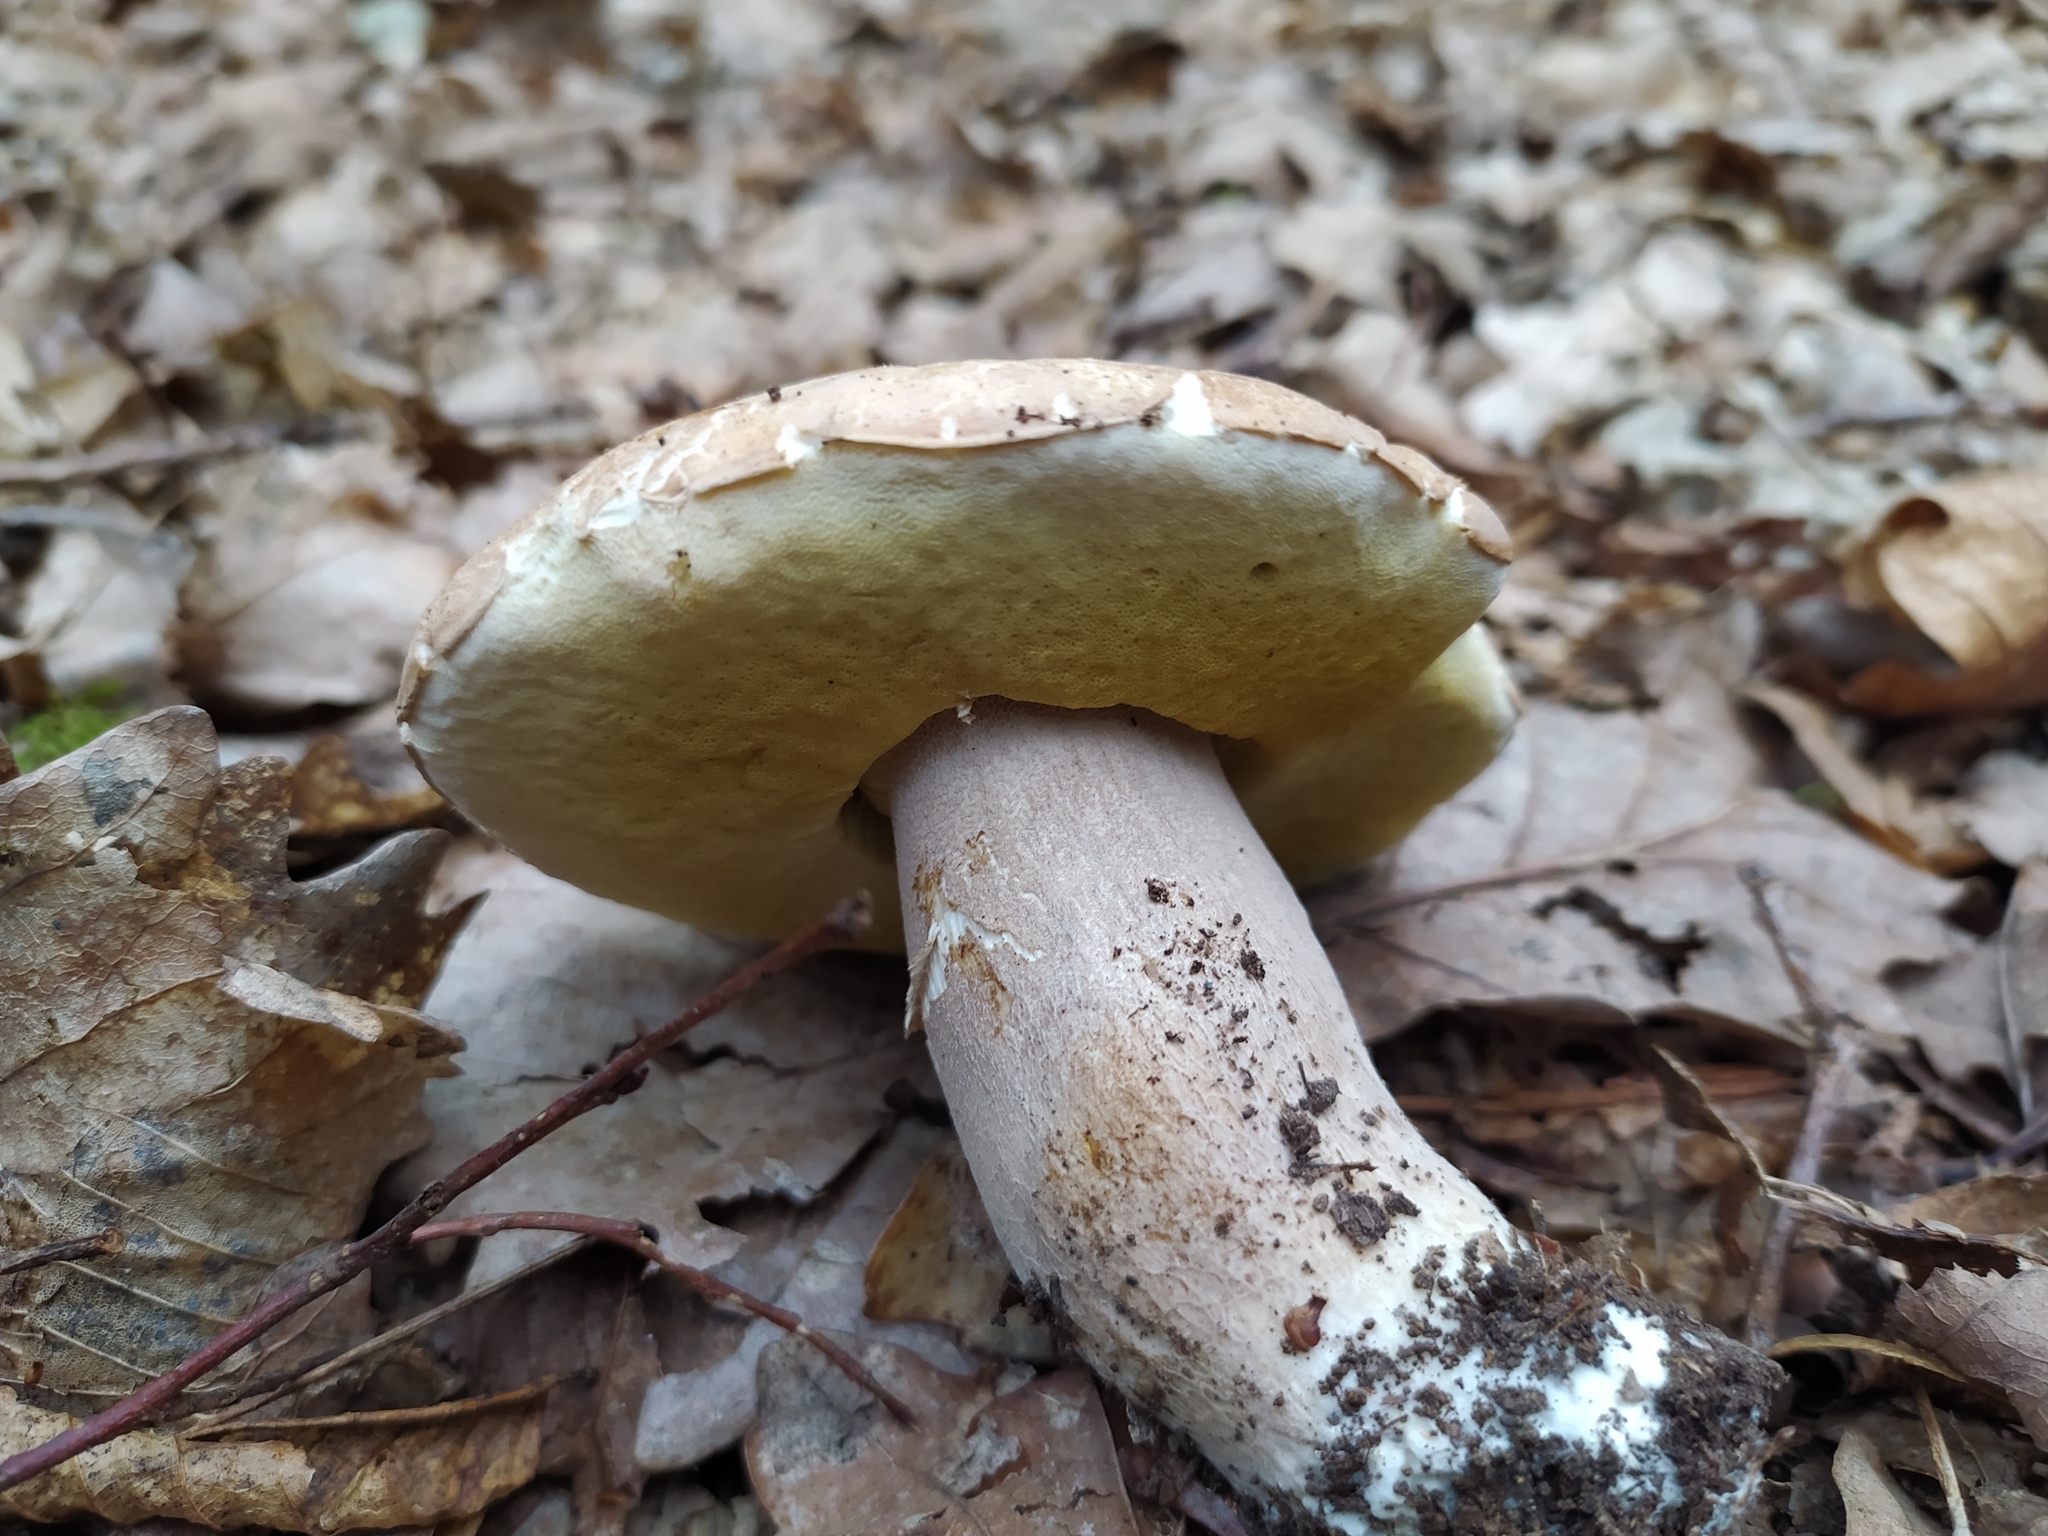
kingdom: Fungi
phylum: Basidiomycota
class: Agaricomycetes
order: Boletales
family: Boletaceae
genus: Boletus
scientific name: Boletus reticulatus
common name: Summer bolete
